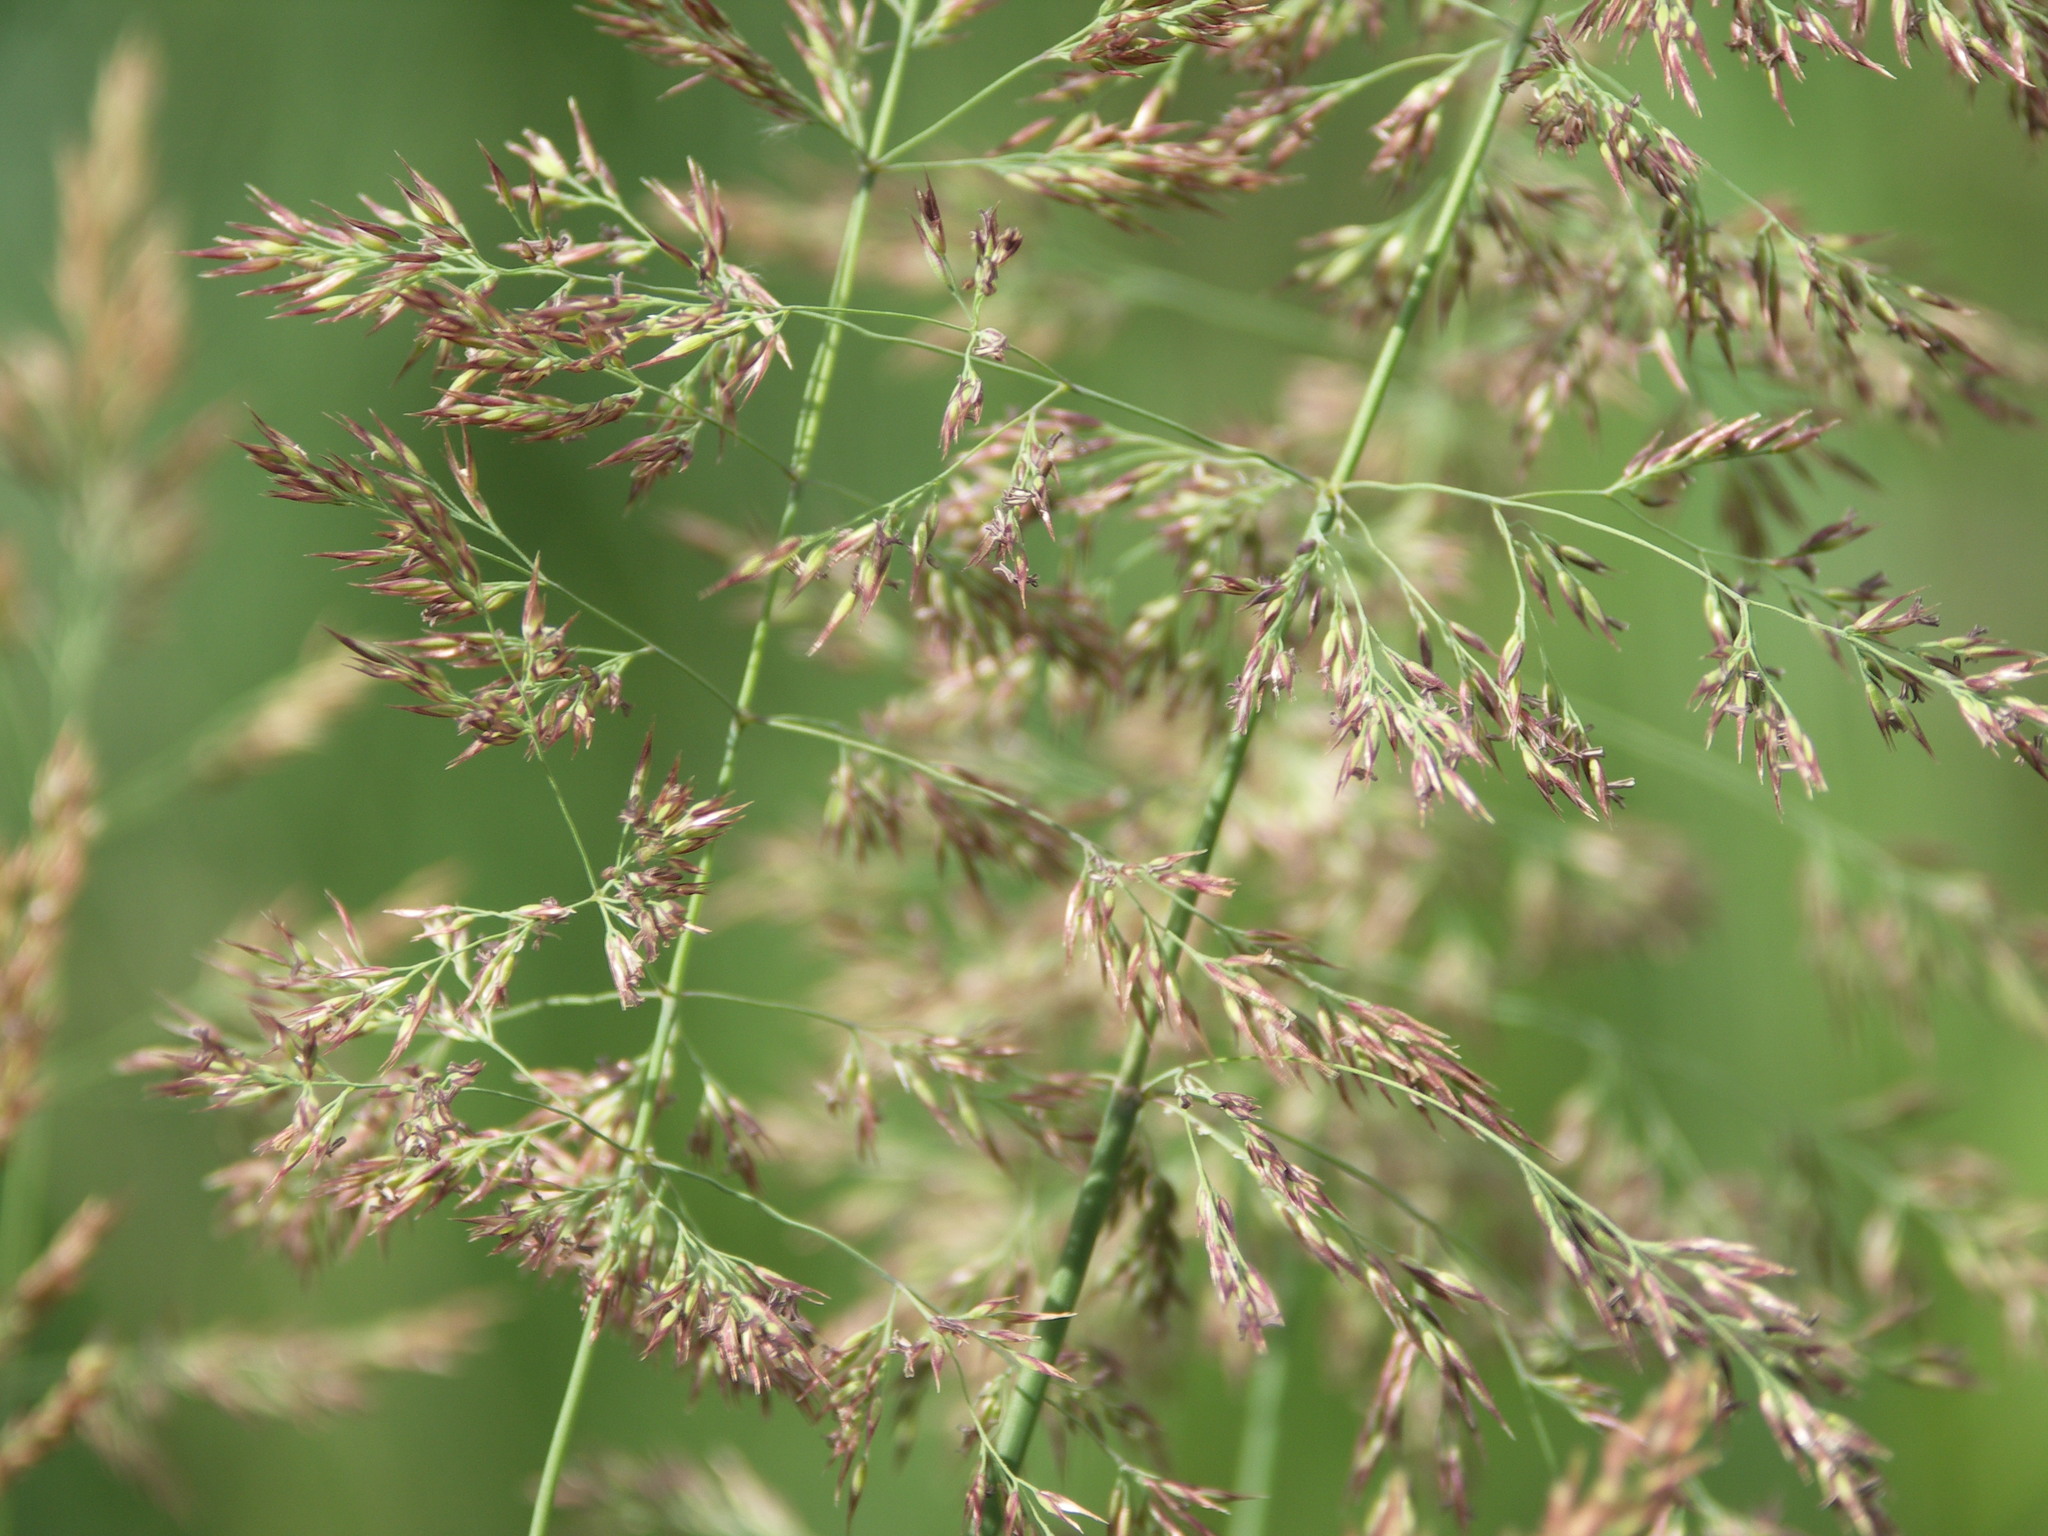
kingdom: Plantae
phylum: Tracheophyta
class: Liliopsida
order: Poales
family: Poaceae
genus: Calamagrostis
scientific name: Calamagrostis stricta
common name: Narrow small-reed
